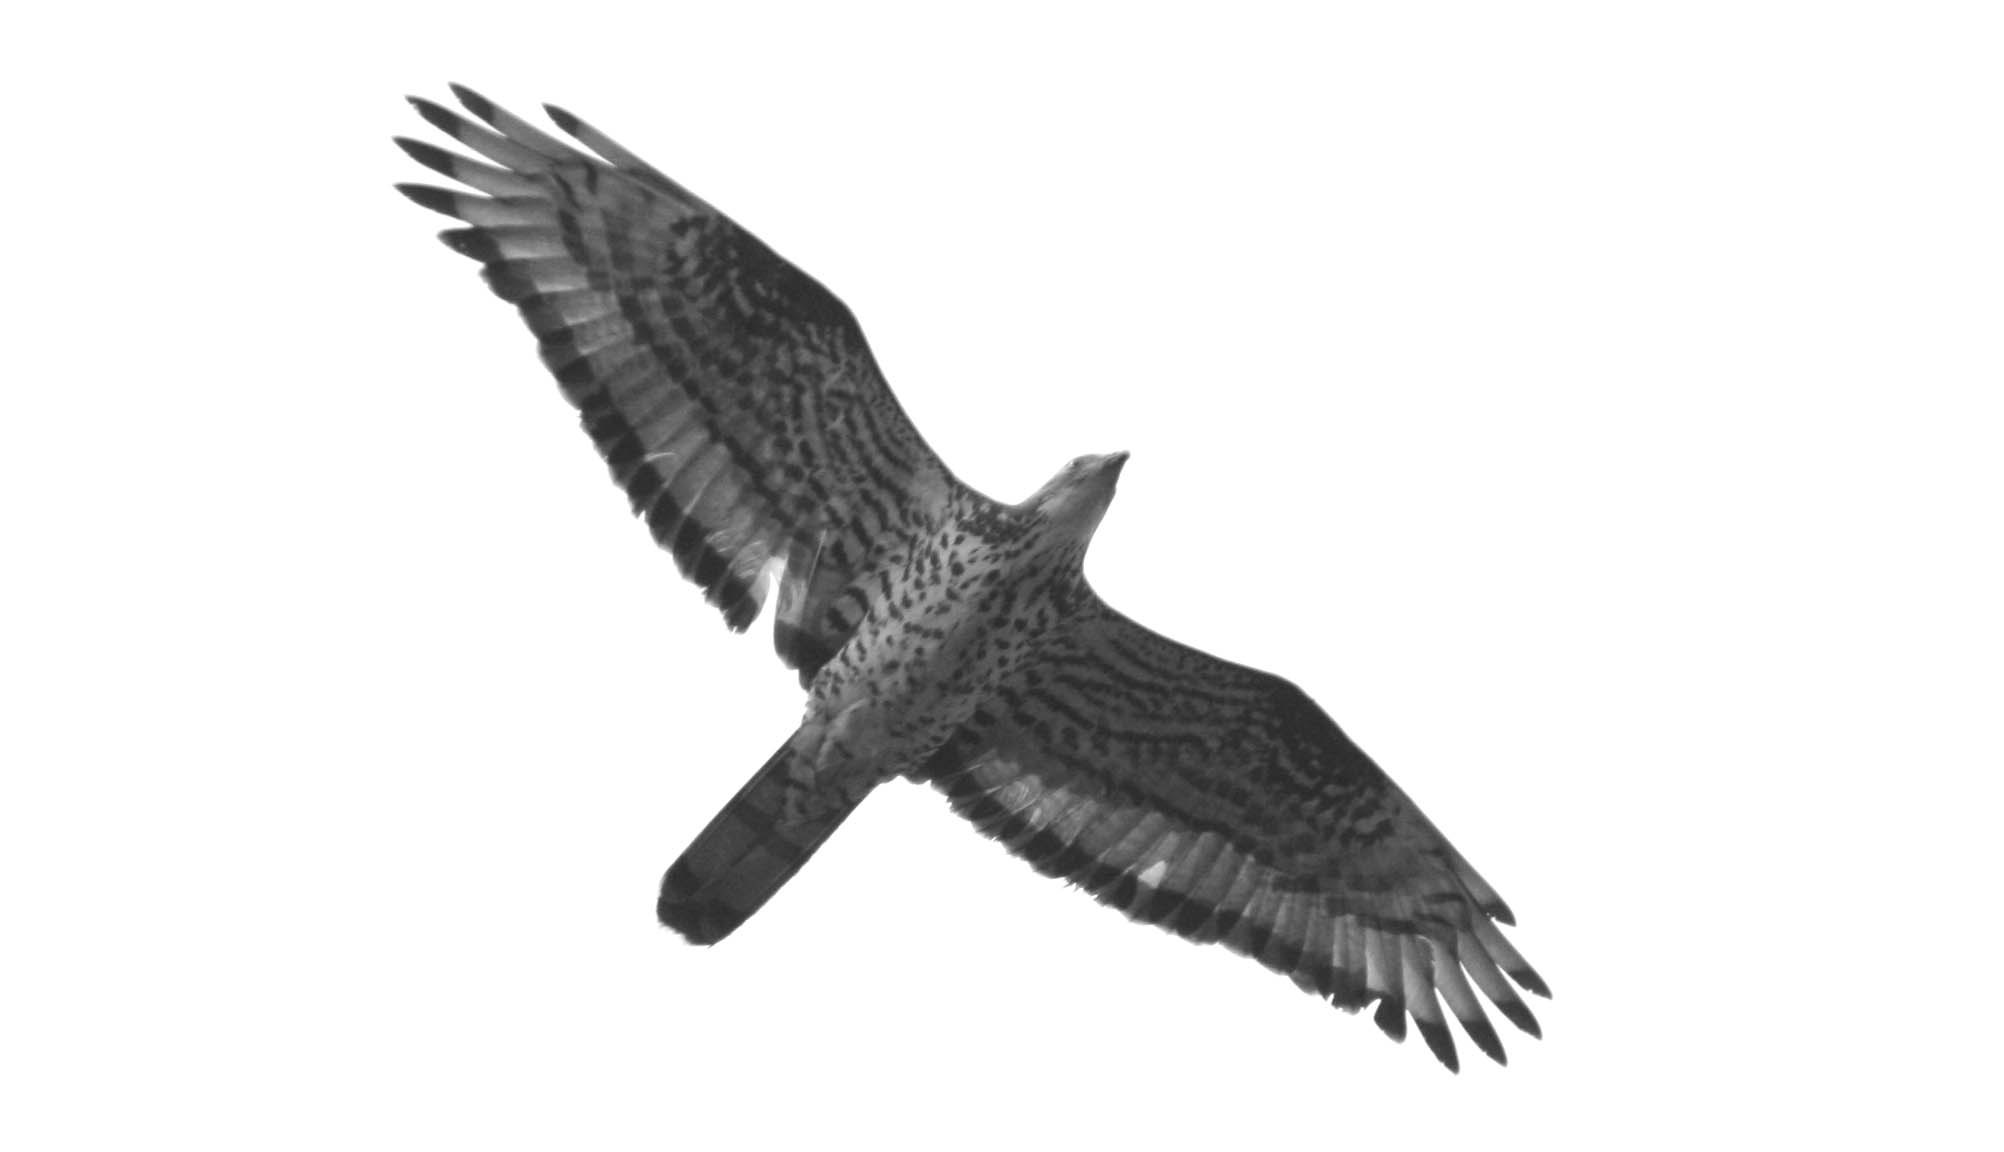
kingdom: Animalia
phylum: Chordata
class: Aves
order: Accipitriformes
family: Accipitridae
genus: Pernis
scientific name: Pernis apivorus
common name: European honey buzzard
